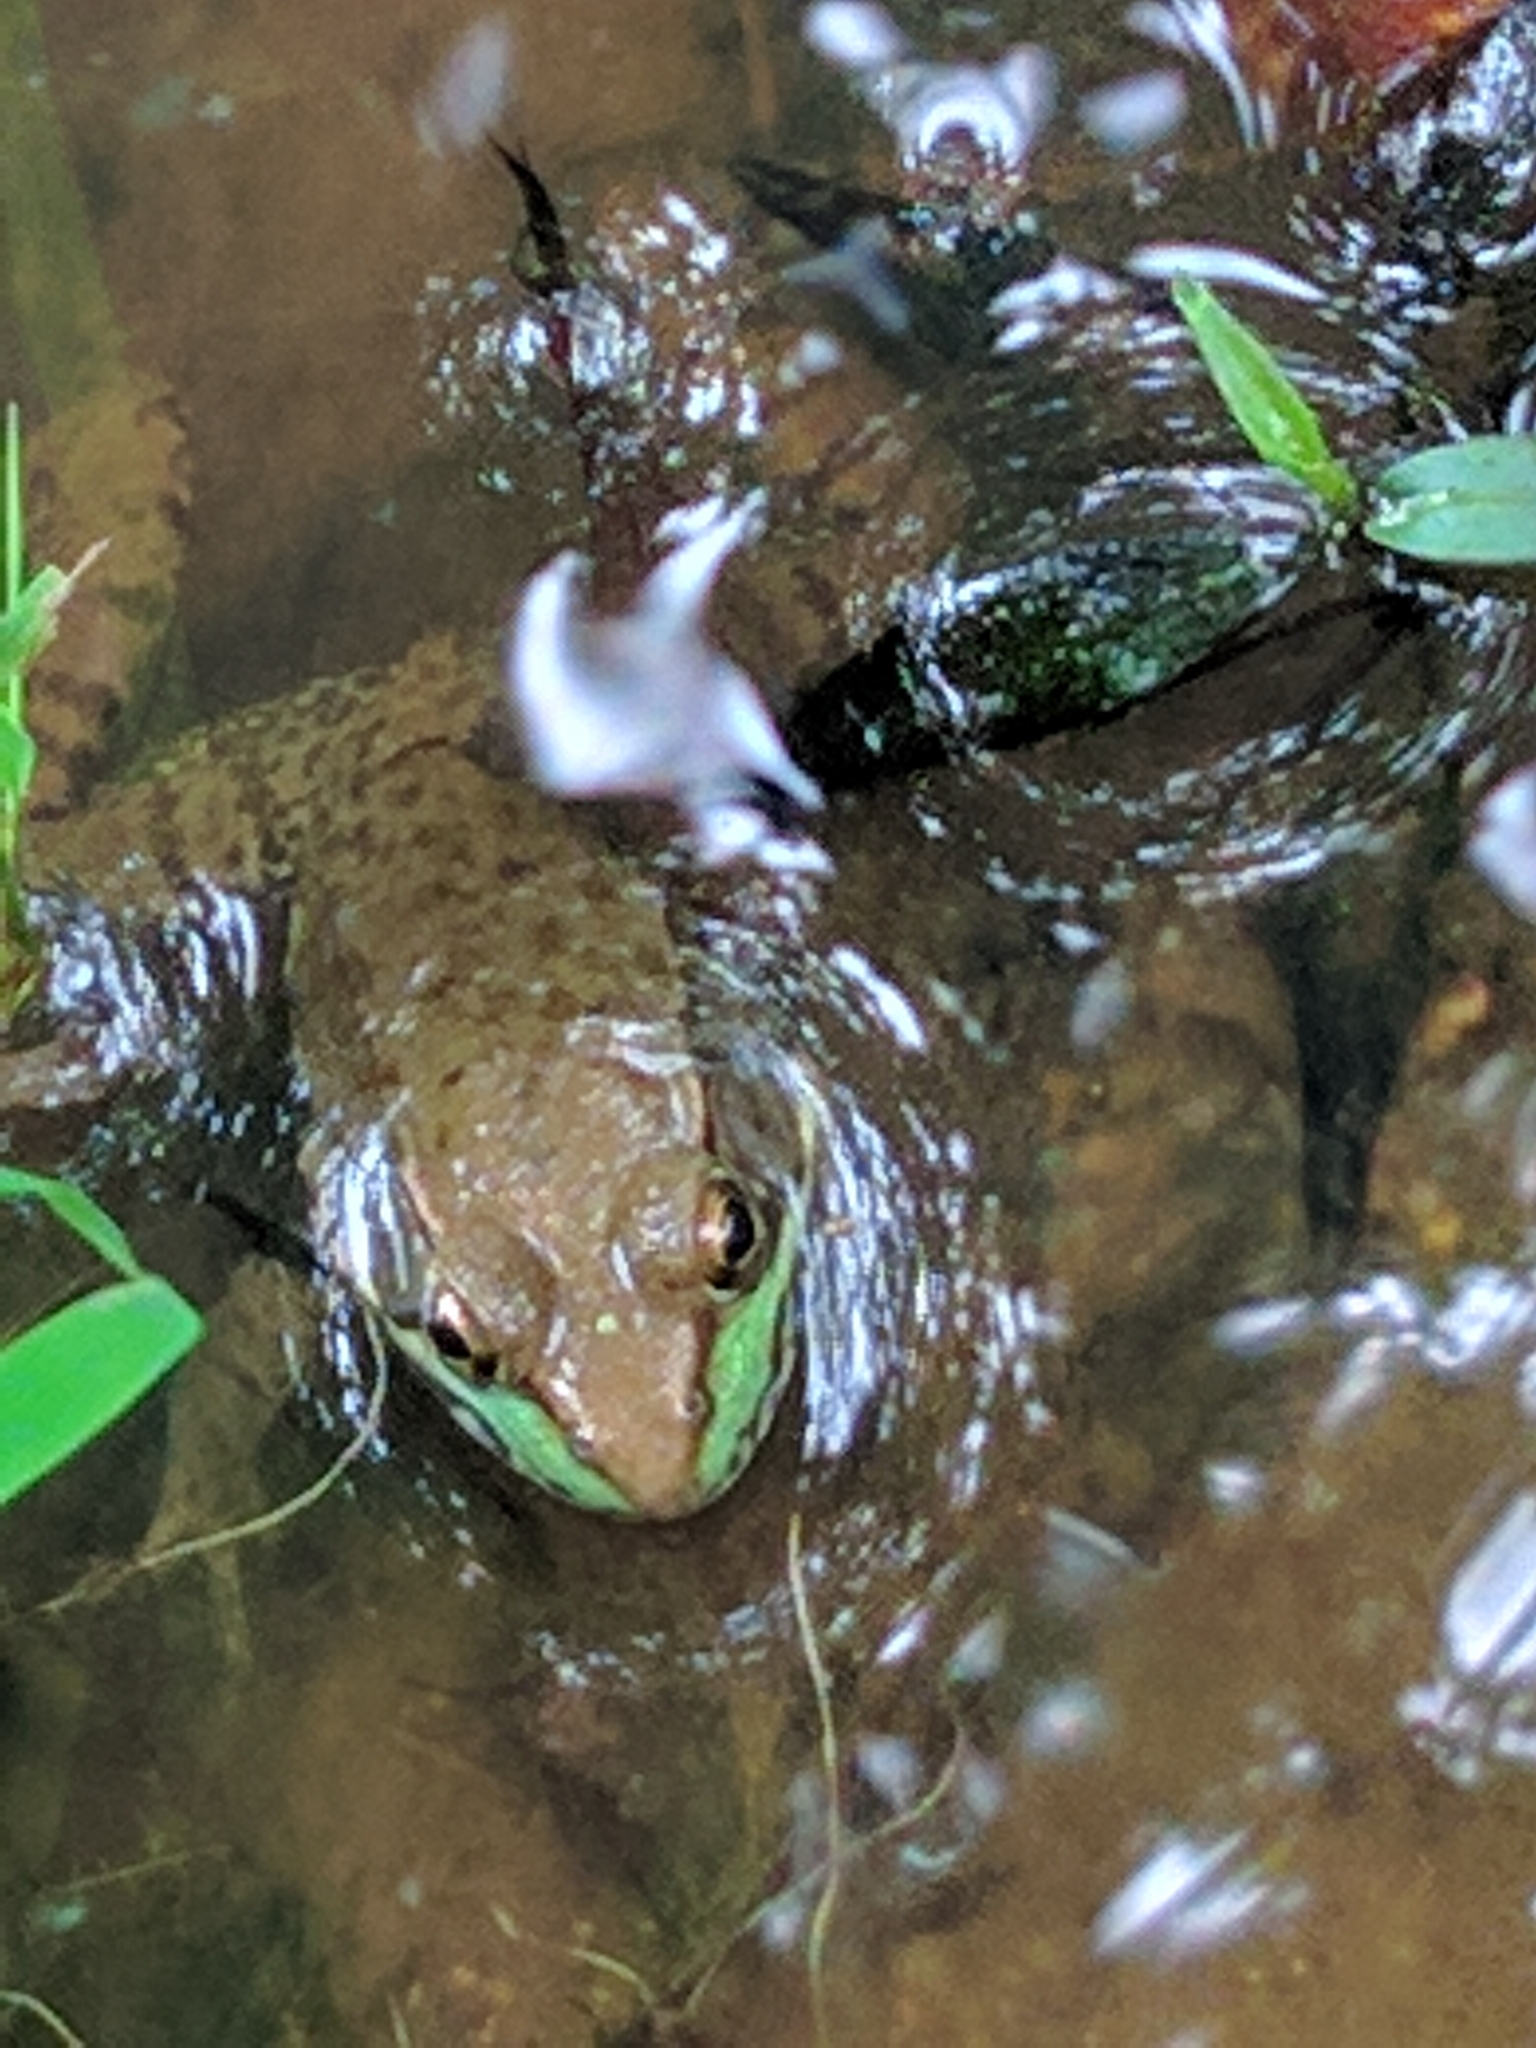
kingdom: Animalia
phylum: Chordata
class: Amphibia
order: Anura
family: Ranidae
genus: Lithobates
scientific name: Lithobates clamitans
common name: Green frog
